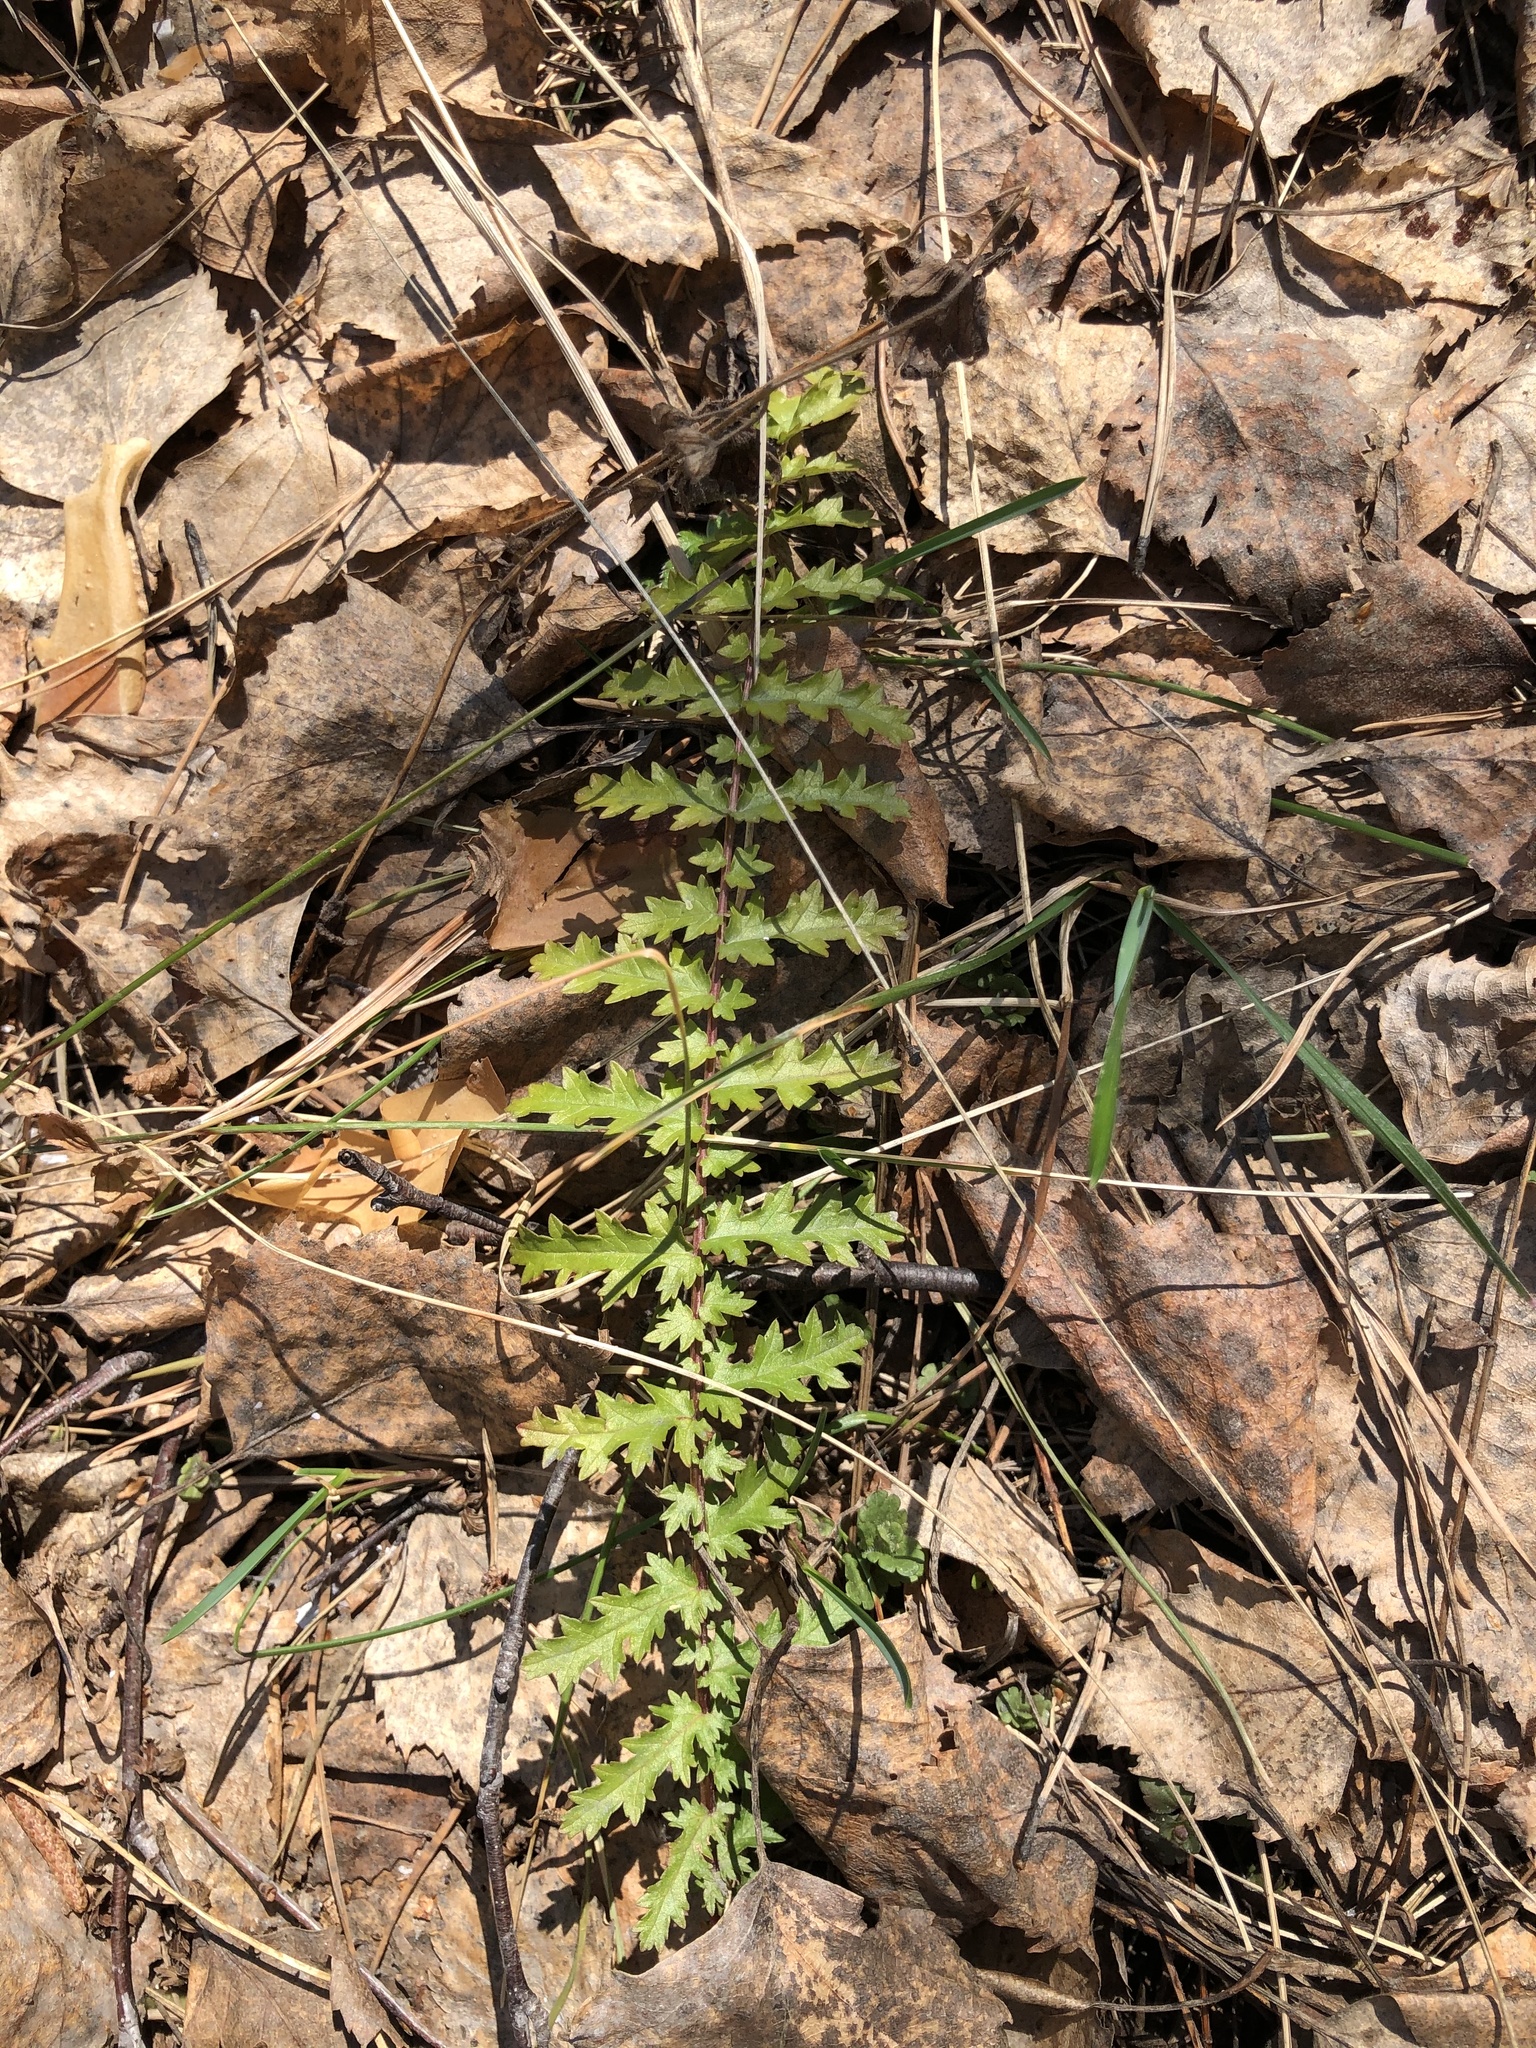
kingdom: Plantae
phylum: Tracheophyta
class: Magnoliopsida
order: Rosales
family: Rosaceae
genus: Filipendula
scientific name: Filipendula vulgaris
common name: Dropwort
